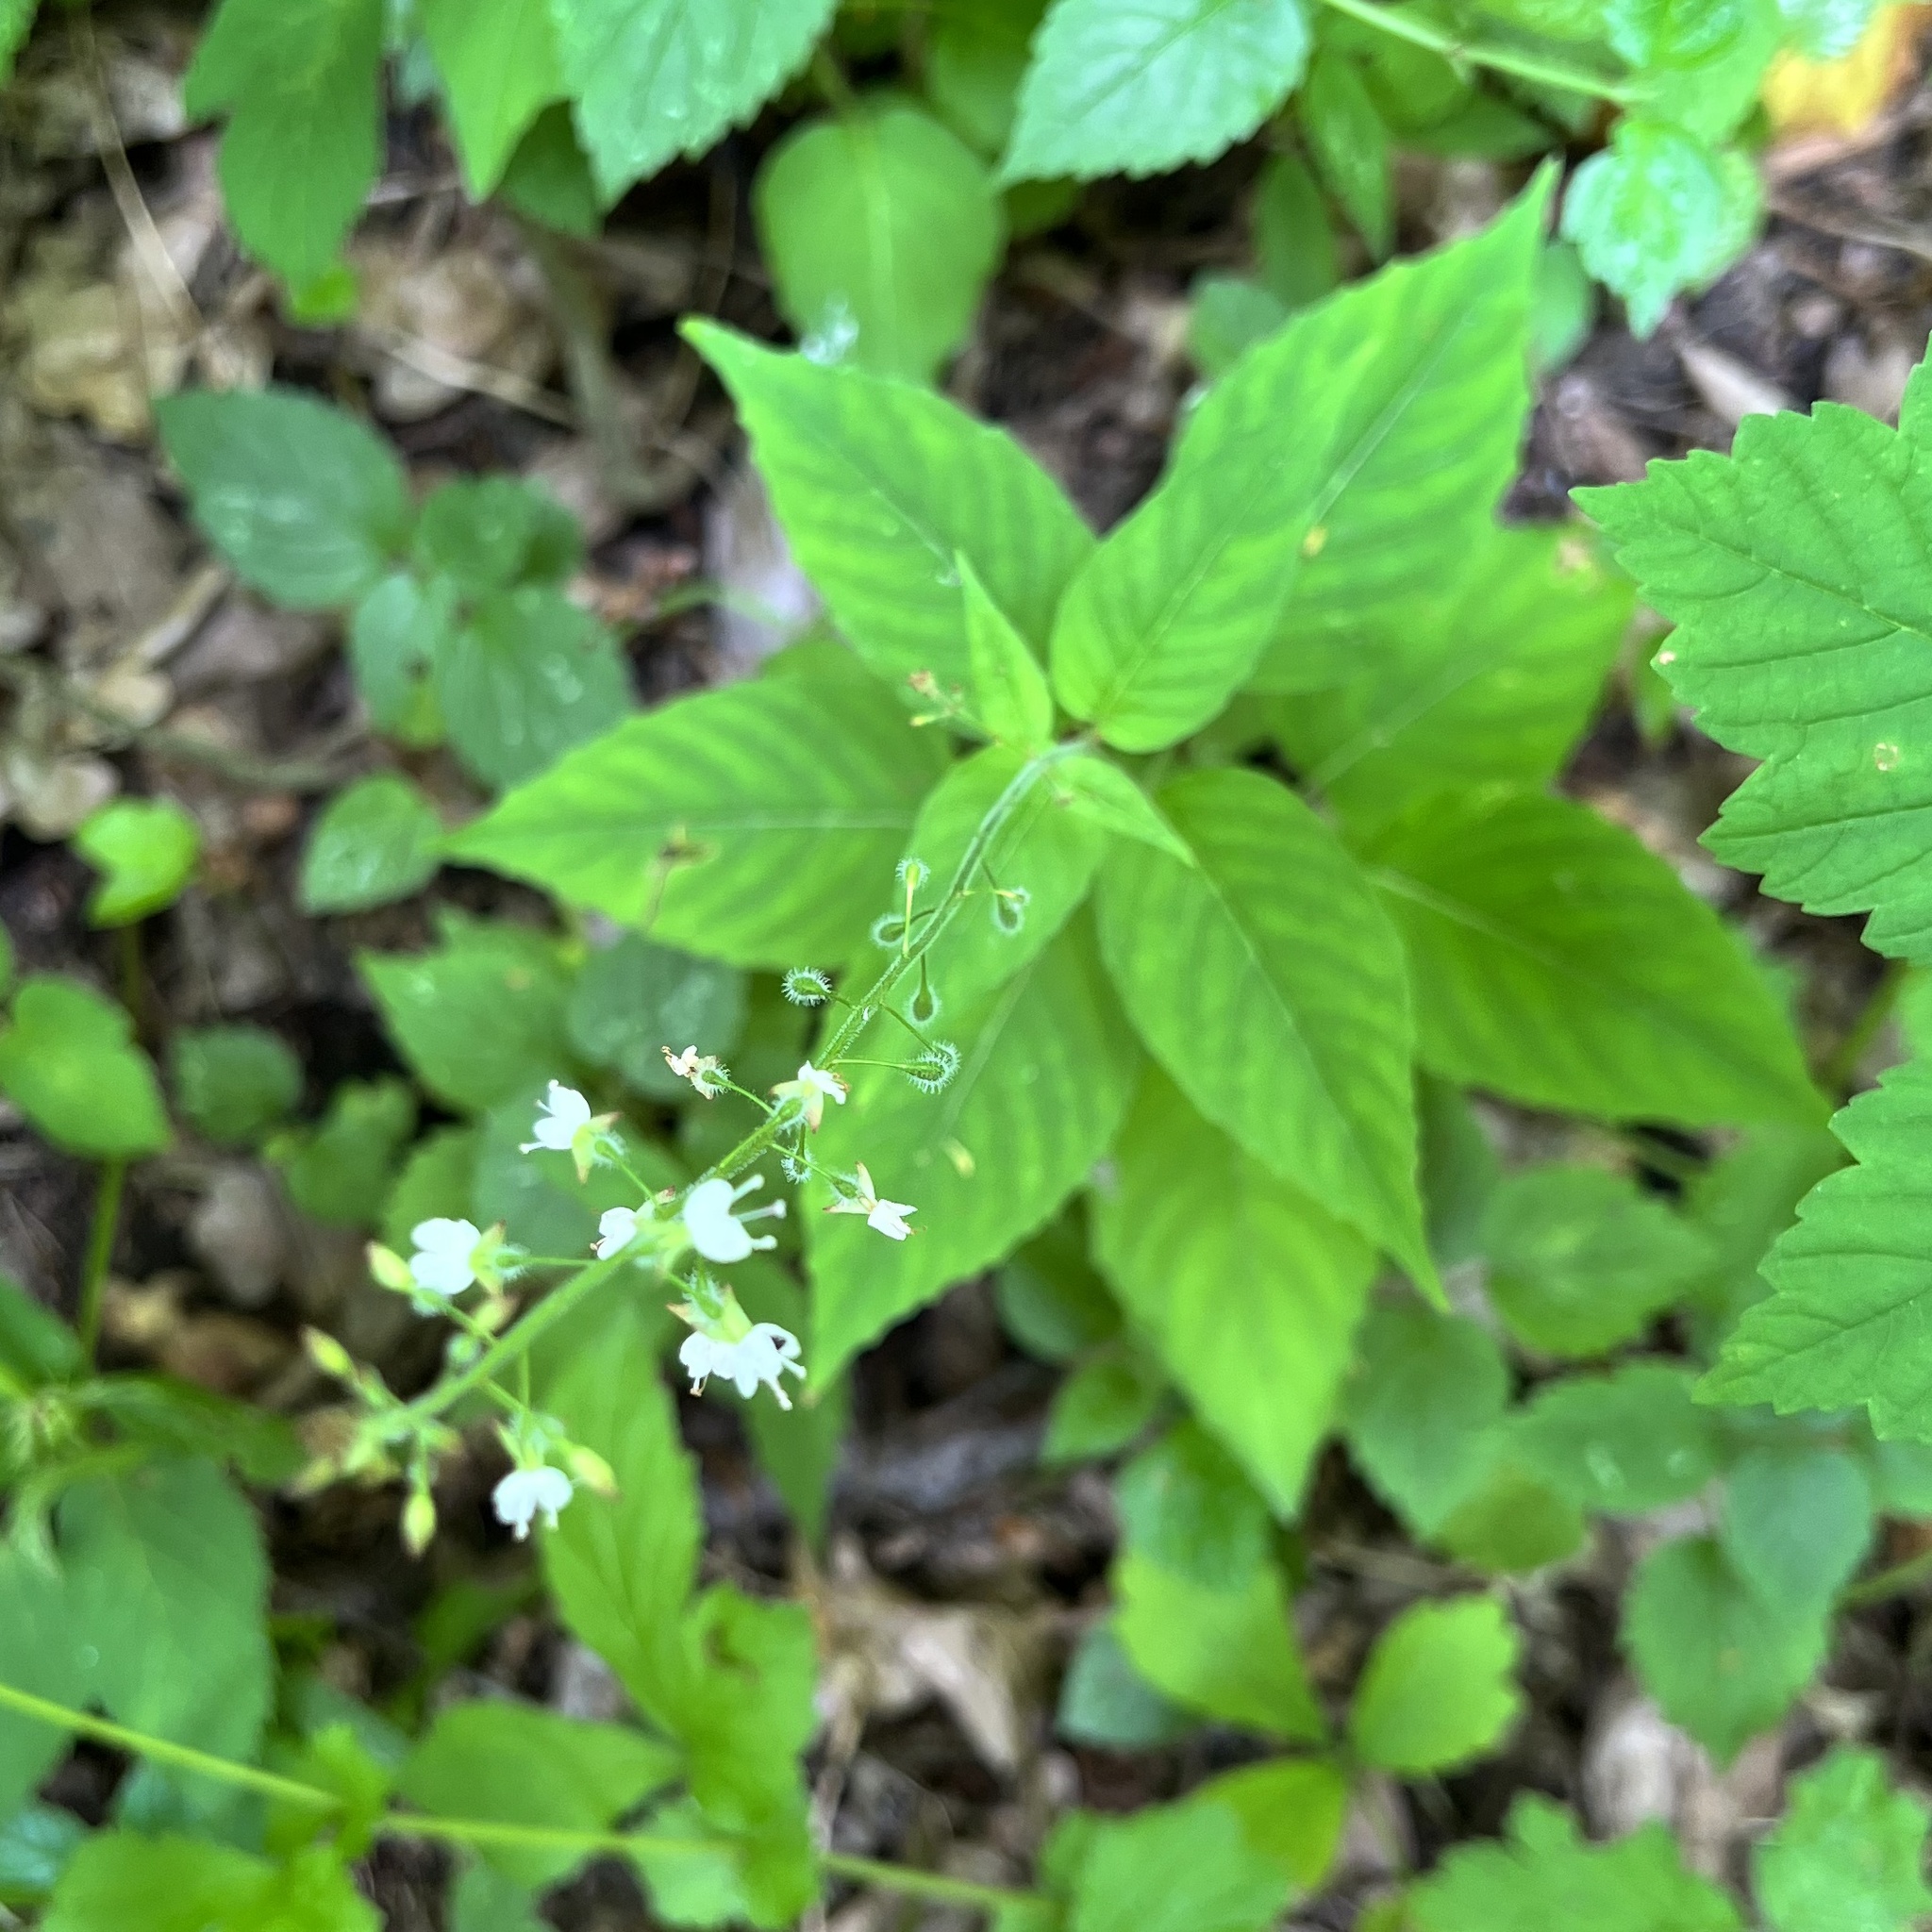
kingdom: Plantae
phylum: Tracheophyta
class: Magnoliopsida
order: Myrtales
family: Onagraceae
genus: Circaea
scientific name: Circaea lutetiana
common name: Enchanter's-nightshade
